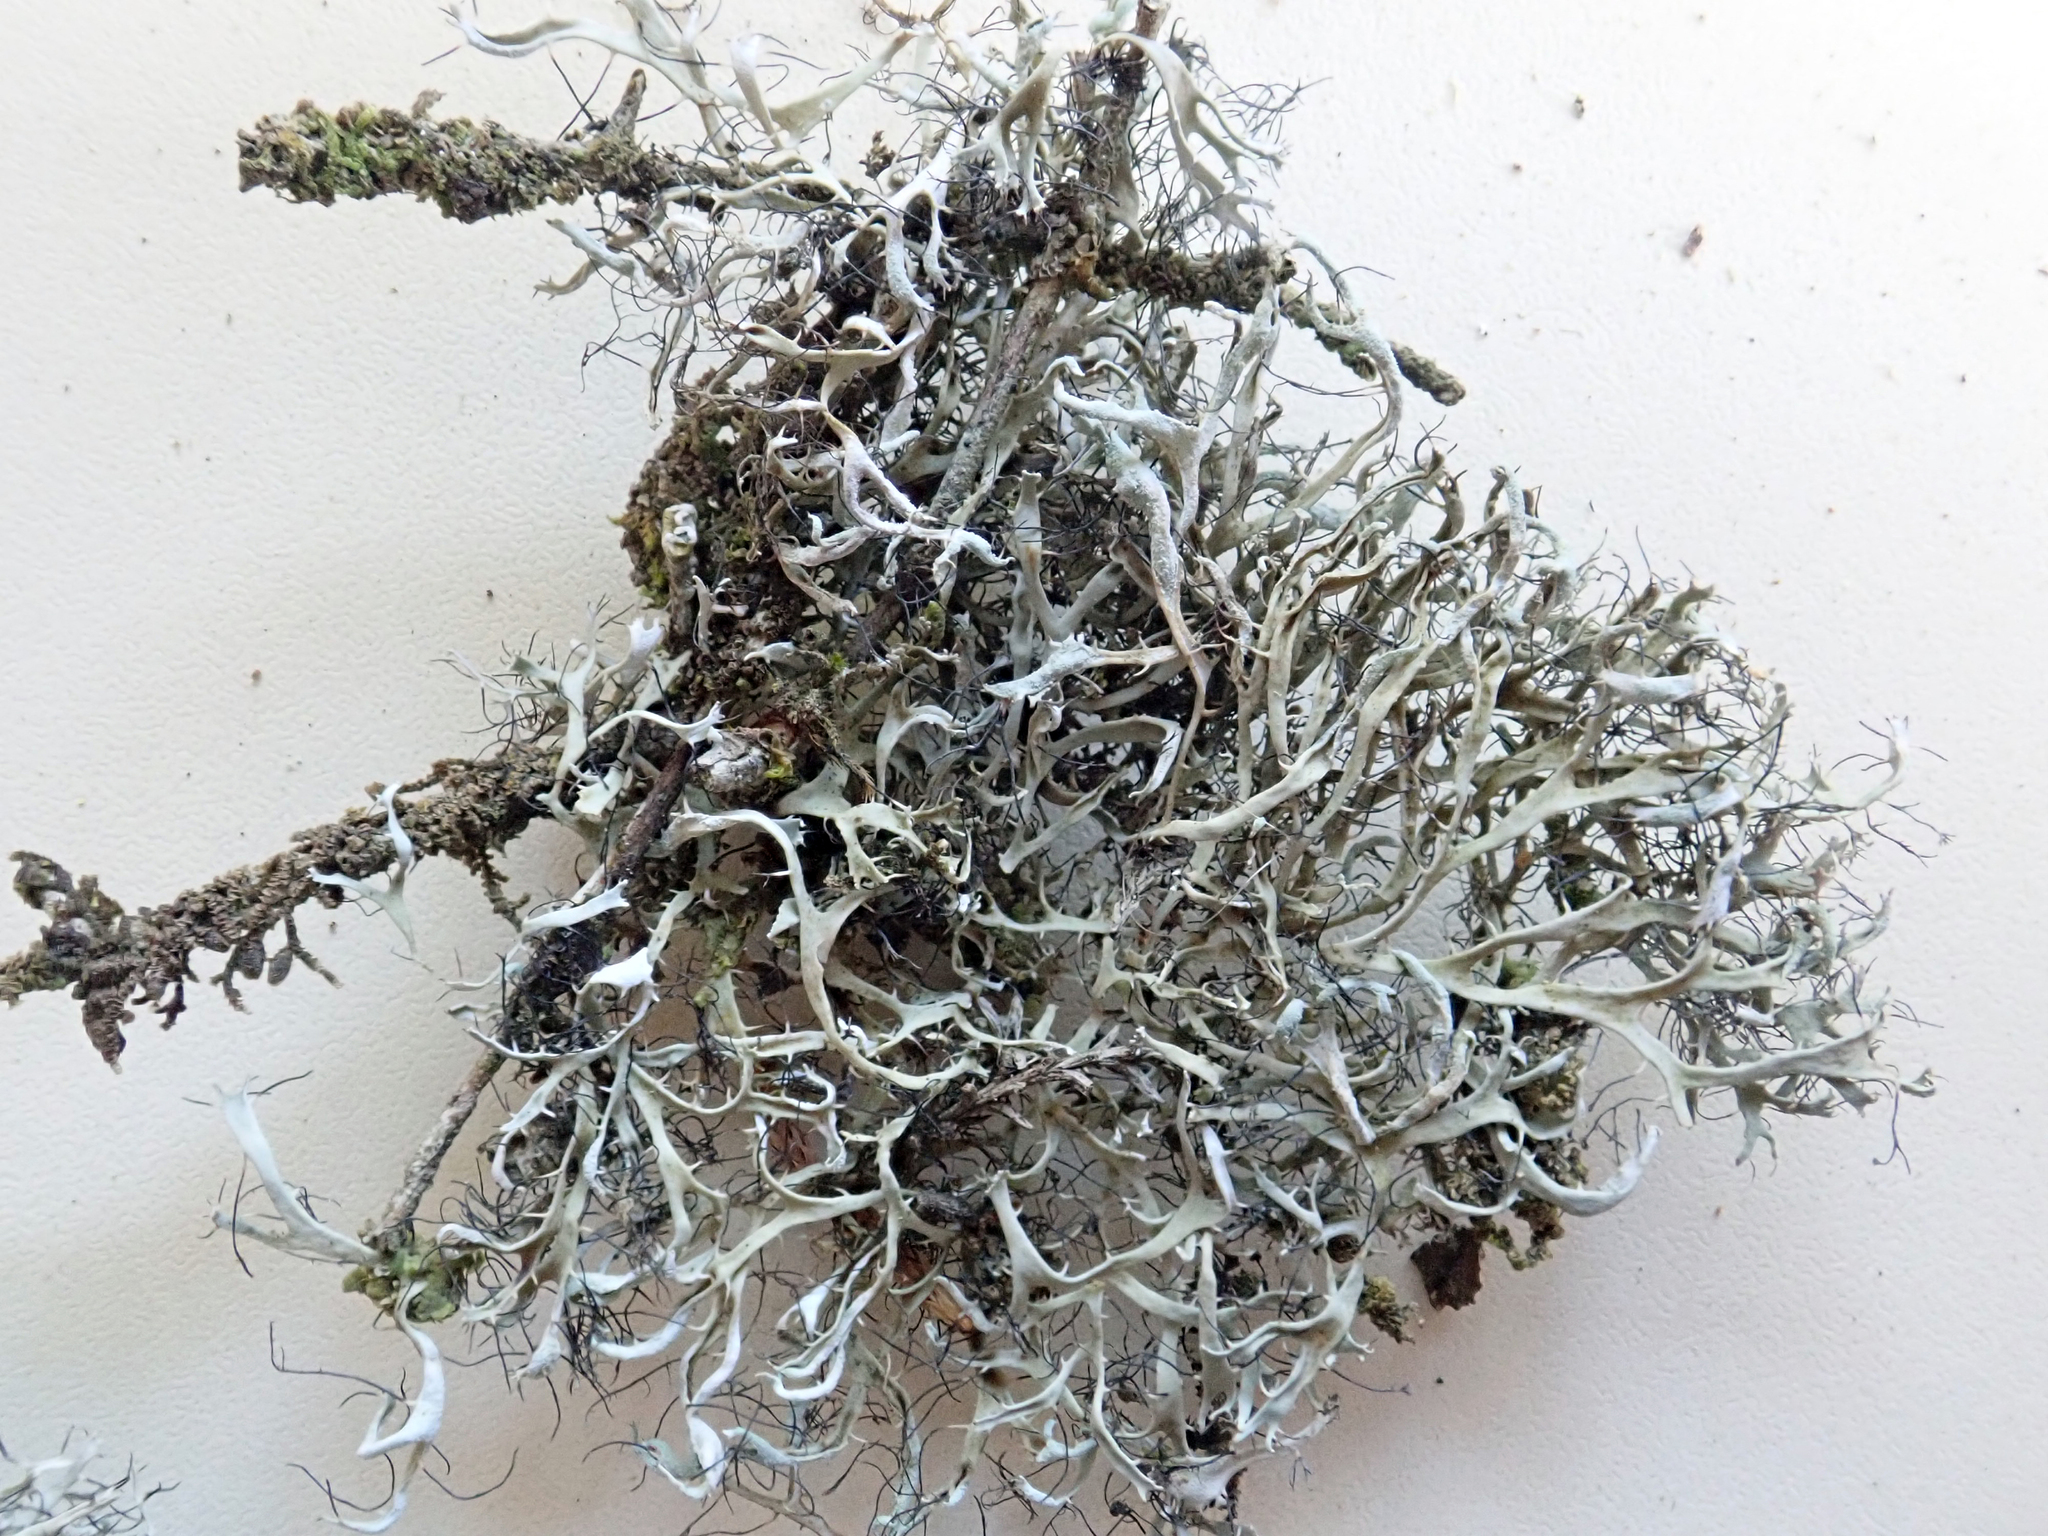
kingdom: Fungi
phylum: Ascomycota
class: Lecanoromycetes
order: Caliciales
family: Physciaceae
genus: Leucodermia
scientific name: Leucodermia leucomelos
